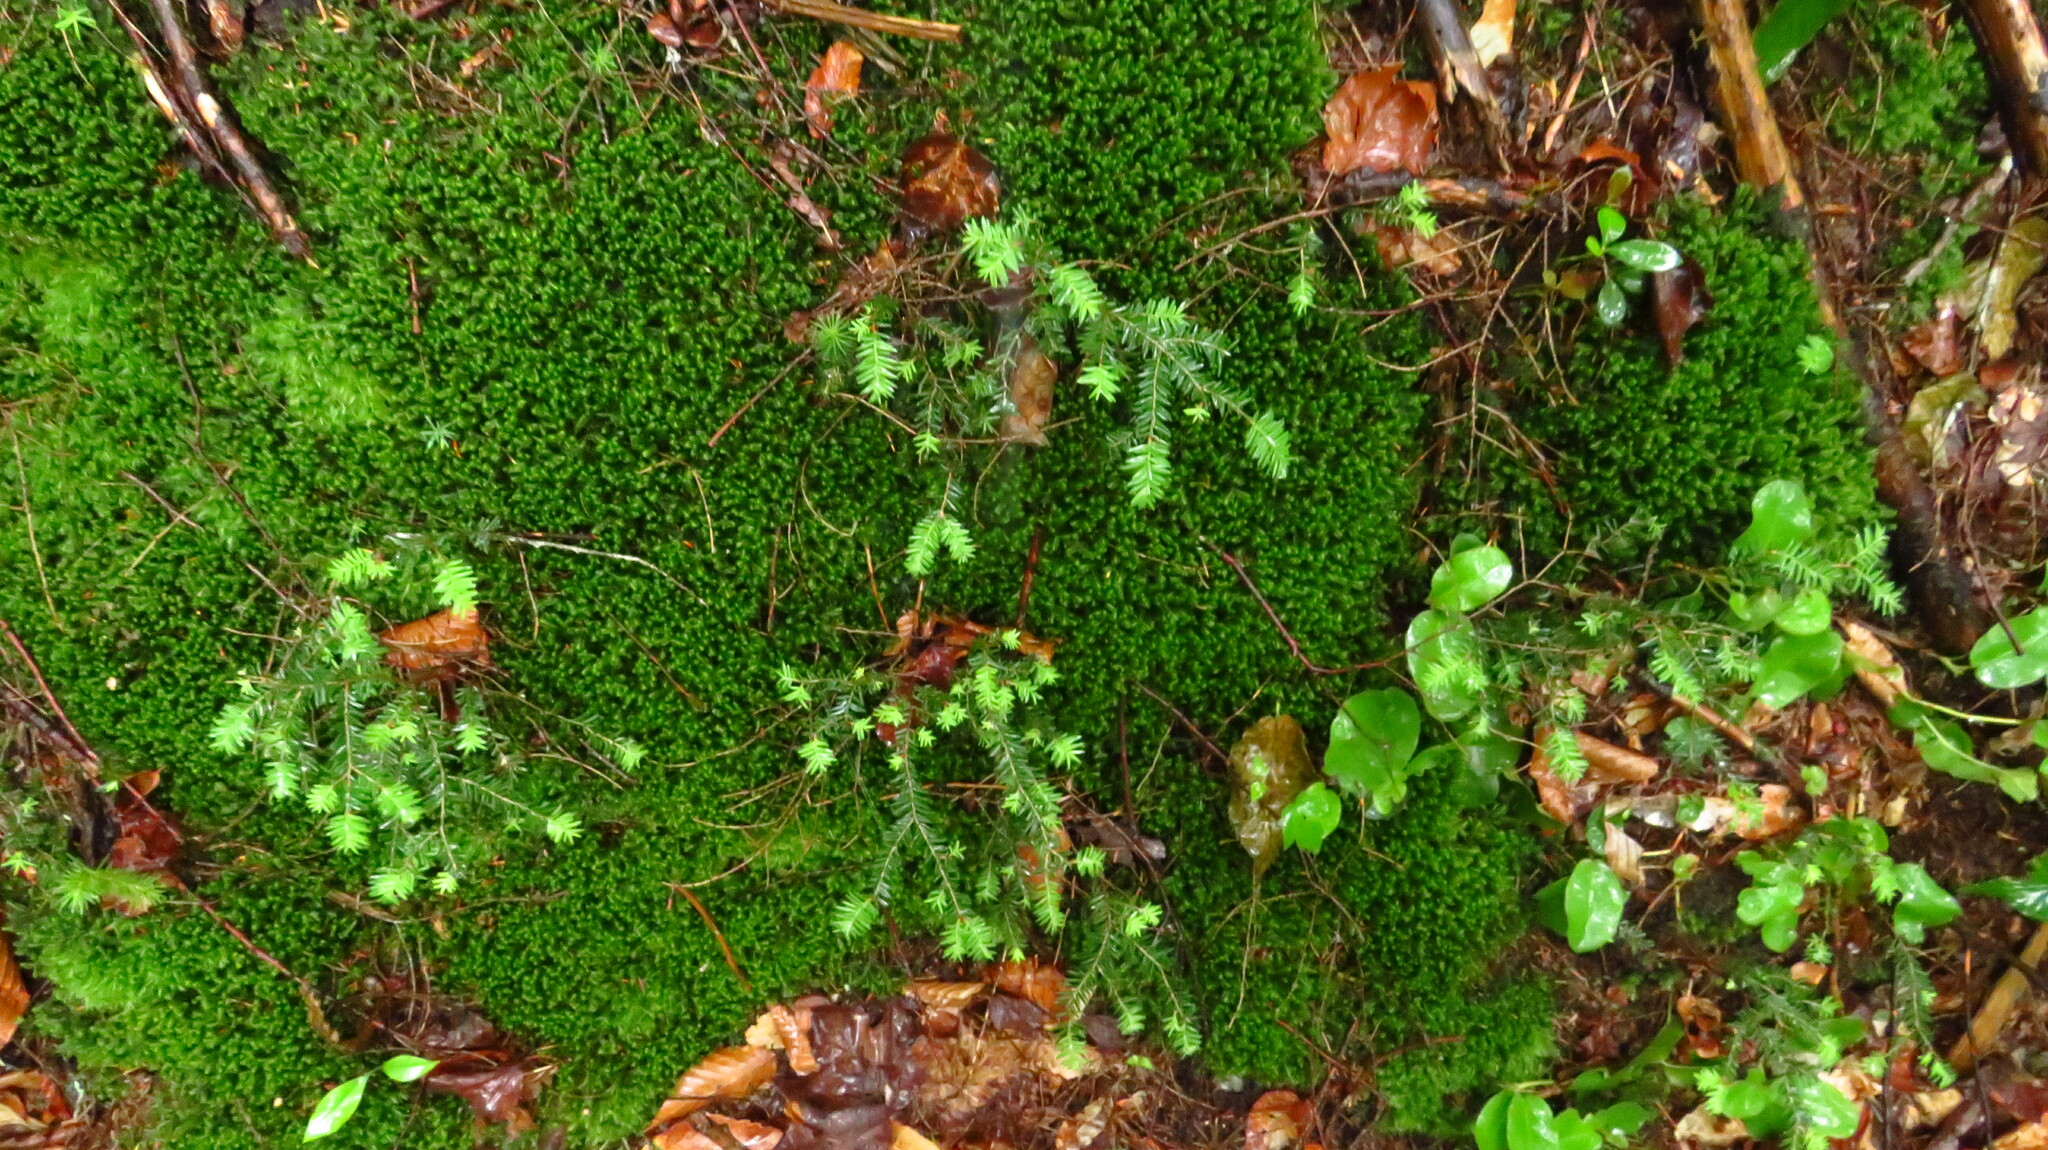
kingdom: Plantae
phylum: Tracheophyta
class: Pinopsida
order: Pinales
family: Pinaceae
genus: Tsuga
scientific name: Tsuga canadensis
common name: Eastern hemlock
